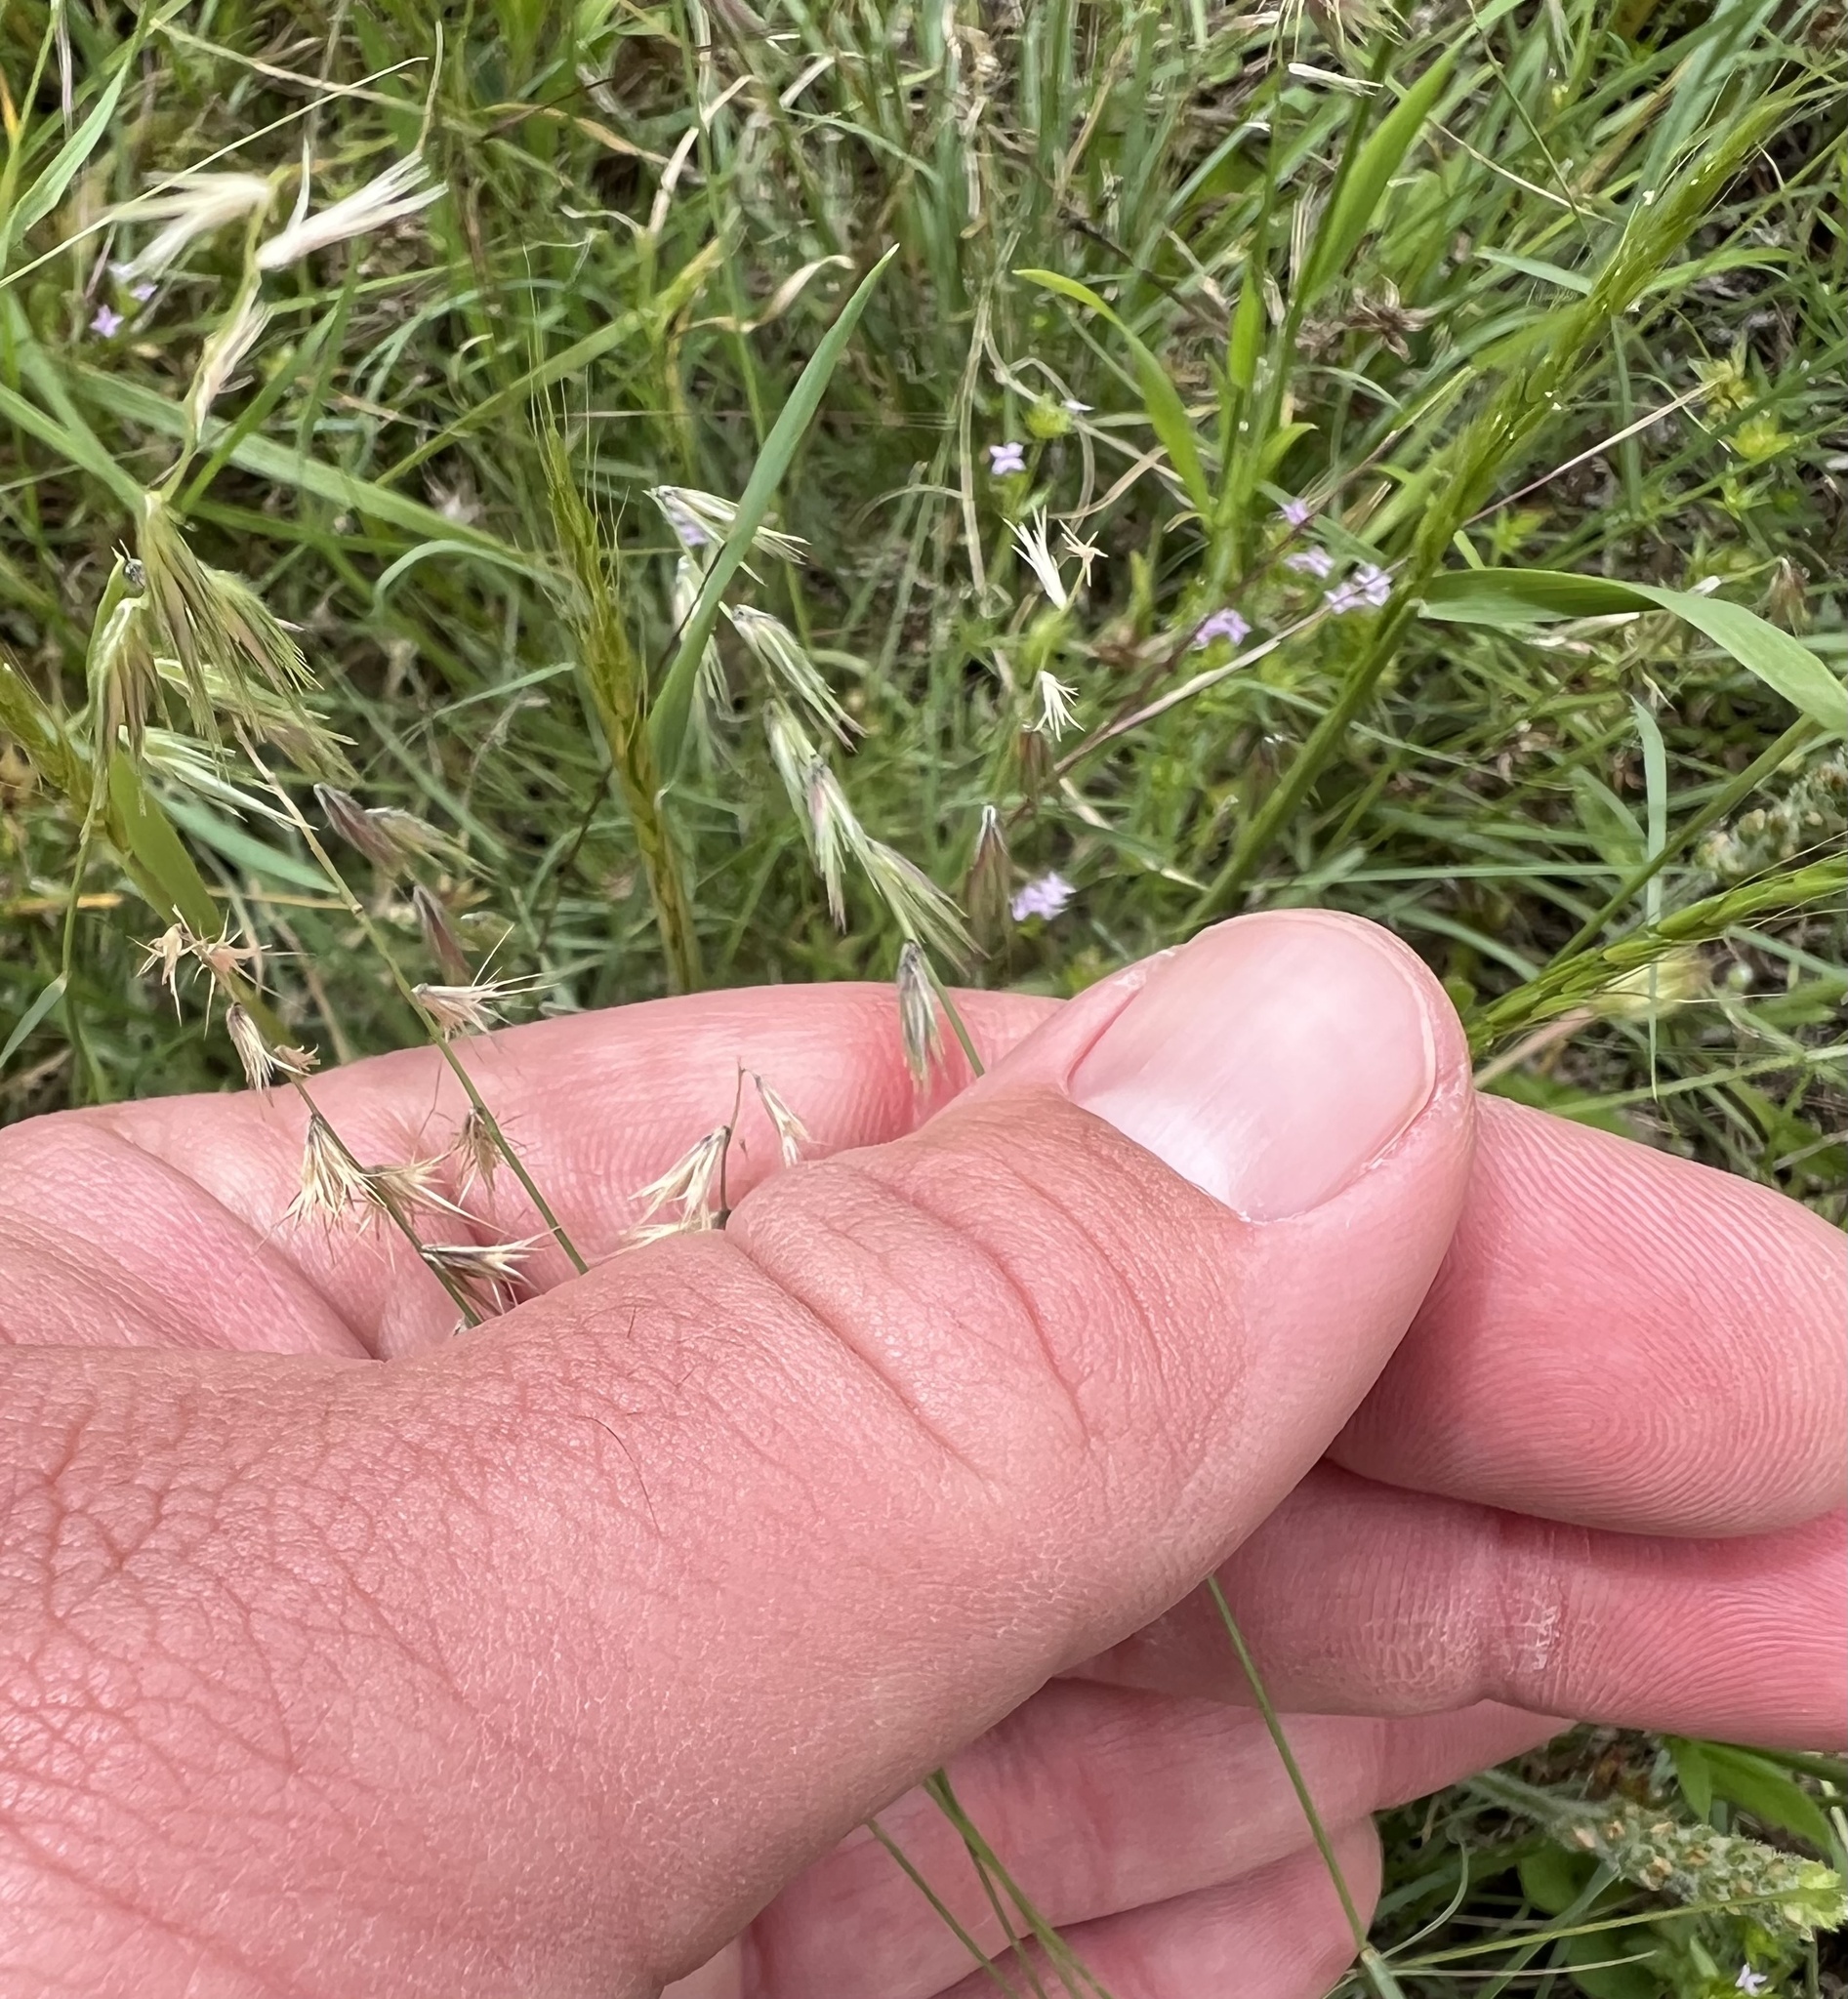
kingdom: Plantae
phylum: Tracheophyta
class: Liliopsida
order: Poales
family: Poaceae
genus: Bouteloua
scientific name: Bouteloua rigidiseta
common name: Texas grama
